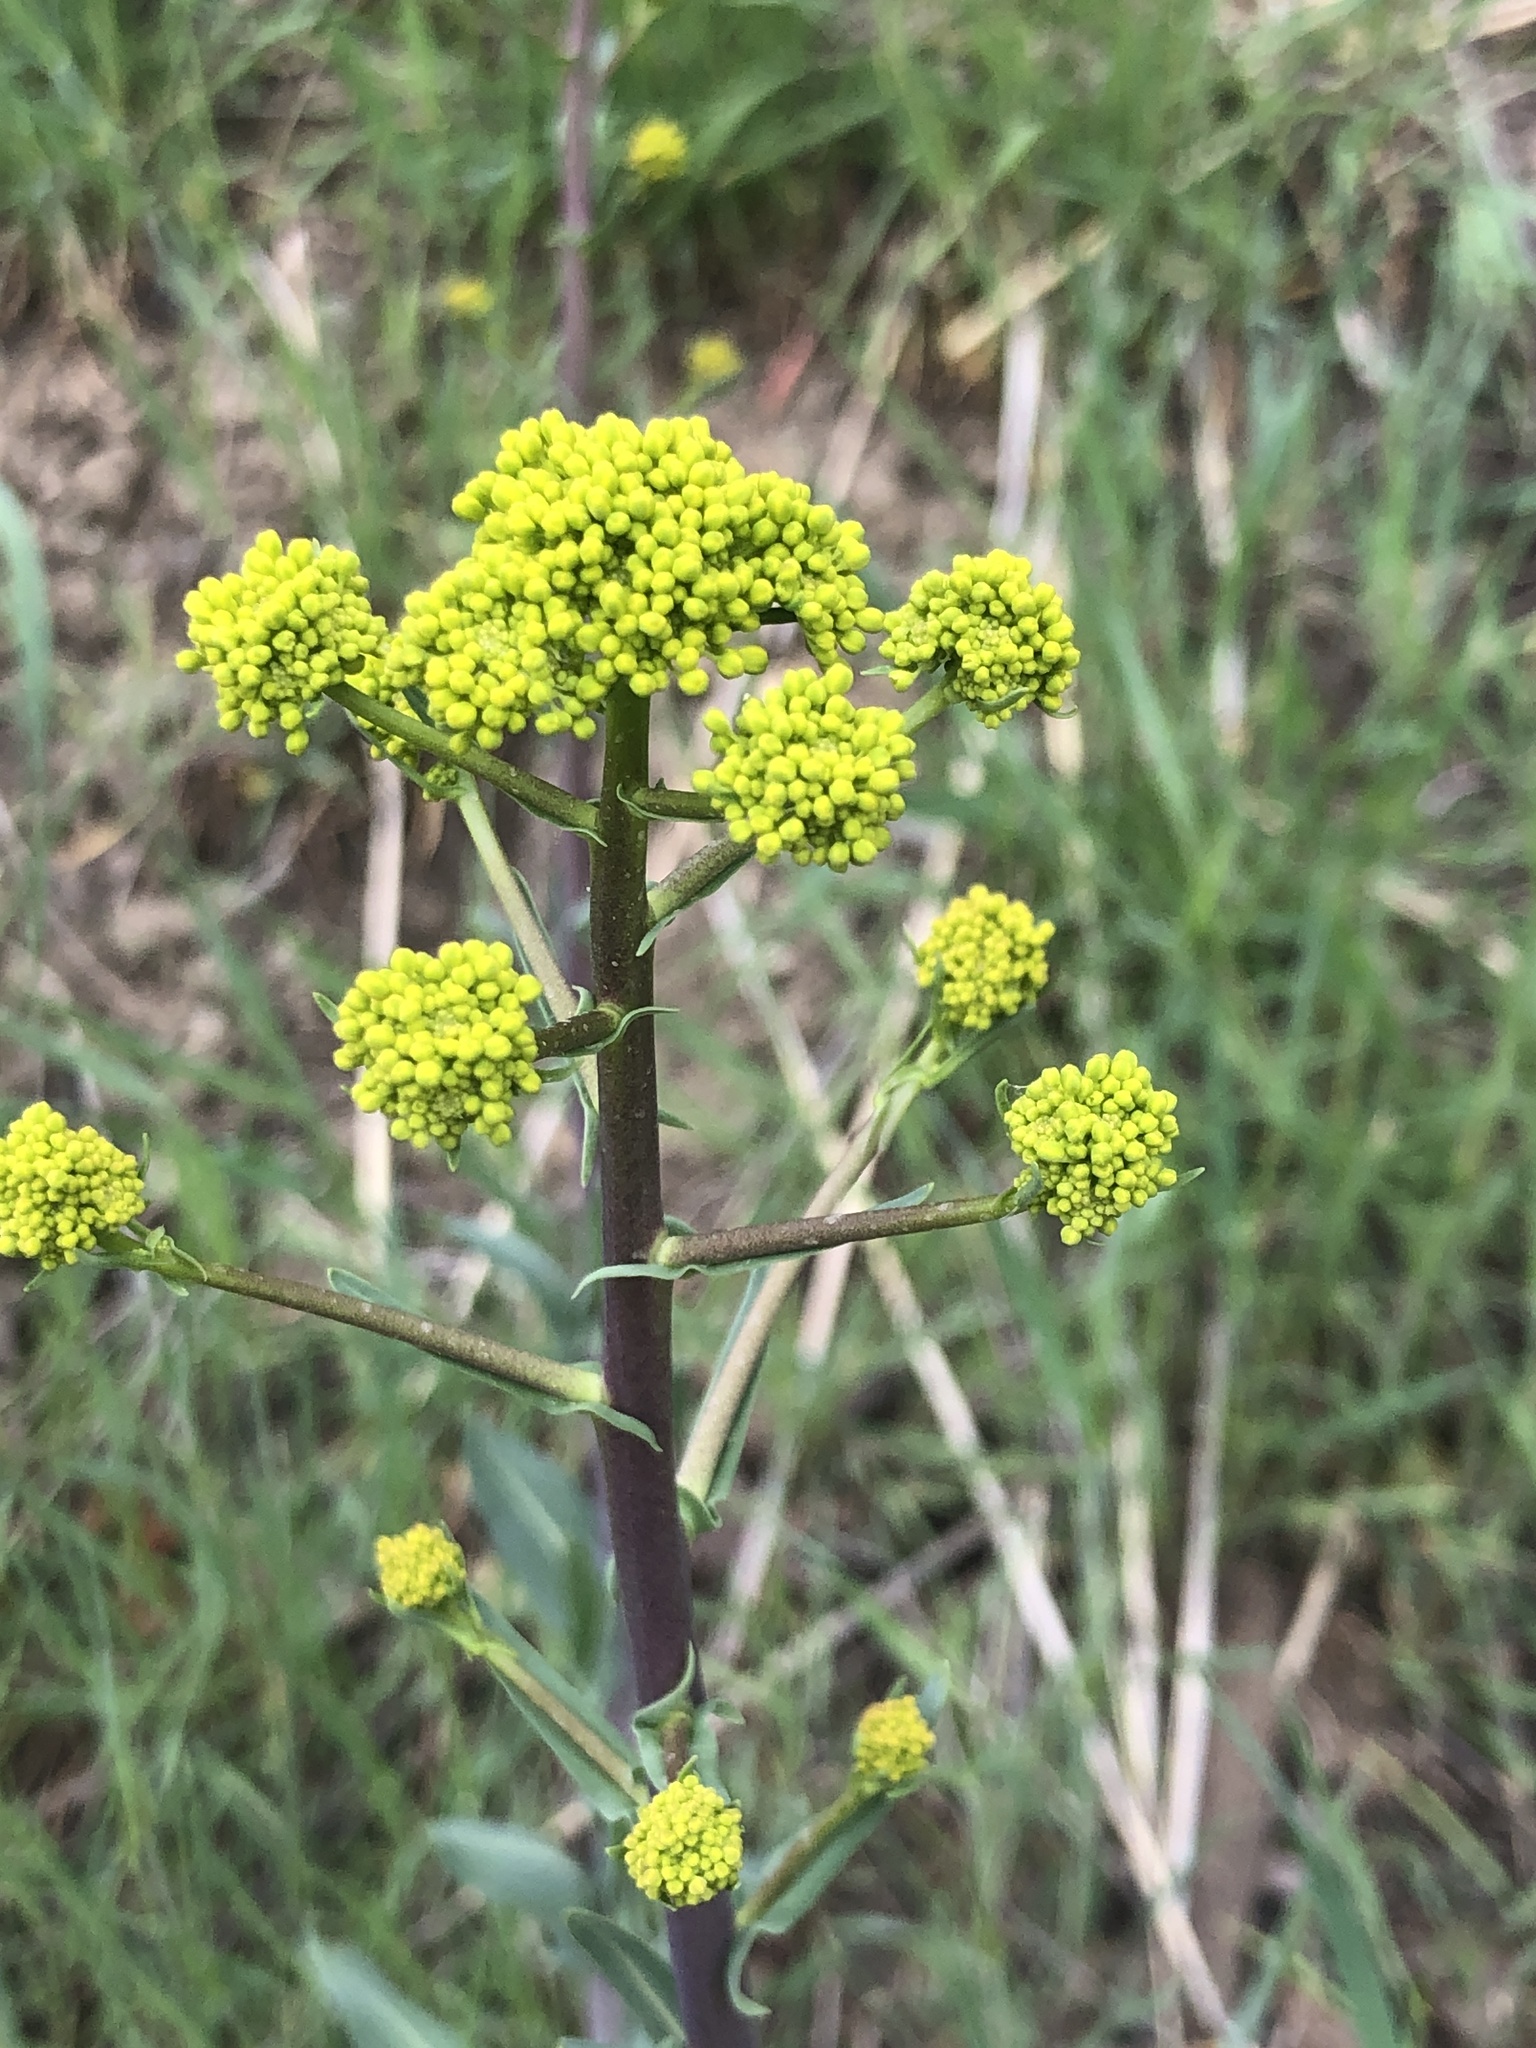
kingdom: Plantae
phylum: Tracheophyta
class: Magnoliopsida
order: Brassicales
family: Brassicaceae
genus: Isatis
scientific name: Isatis tinctoria
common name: Woad
